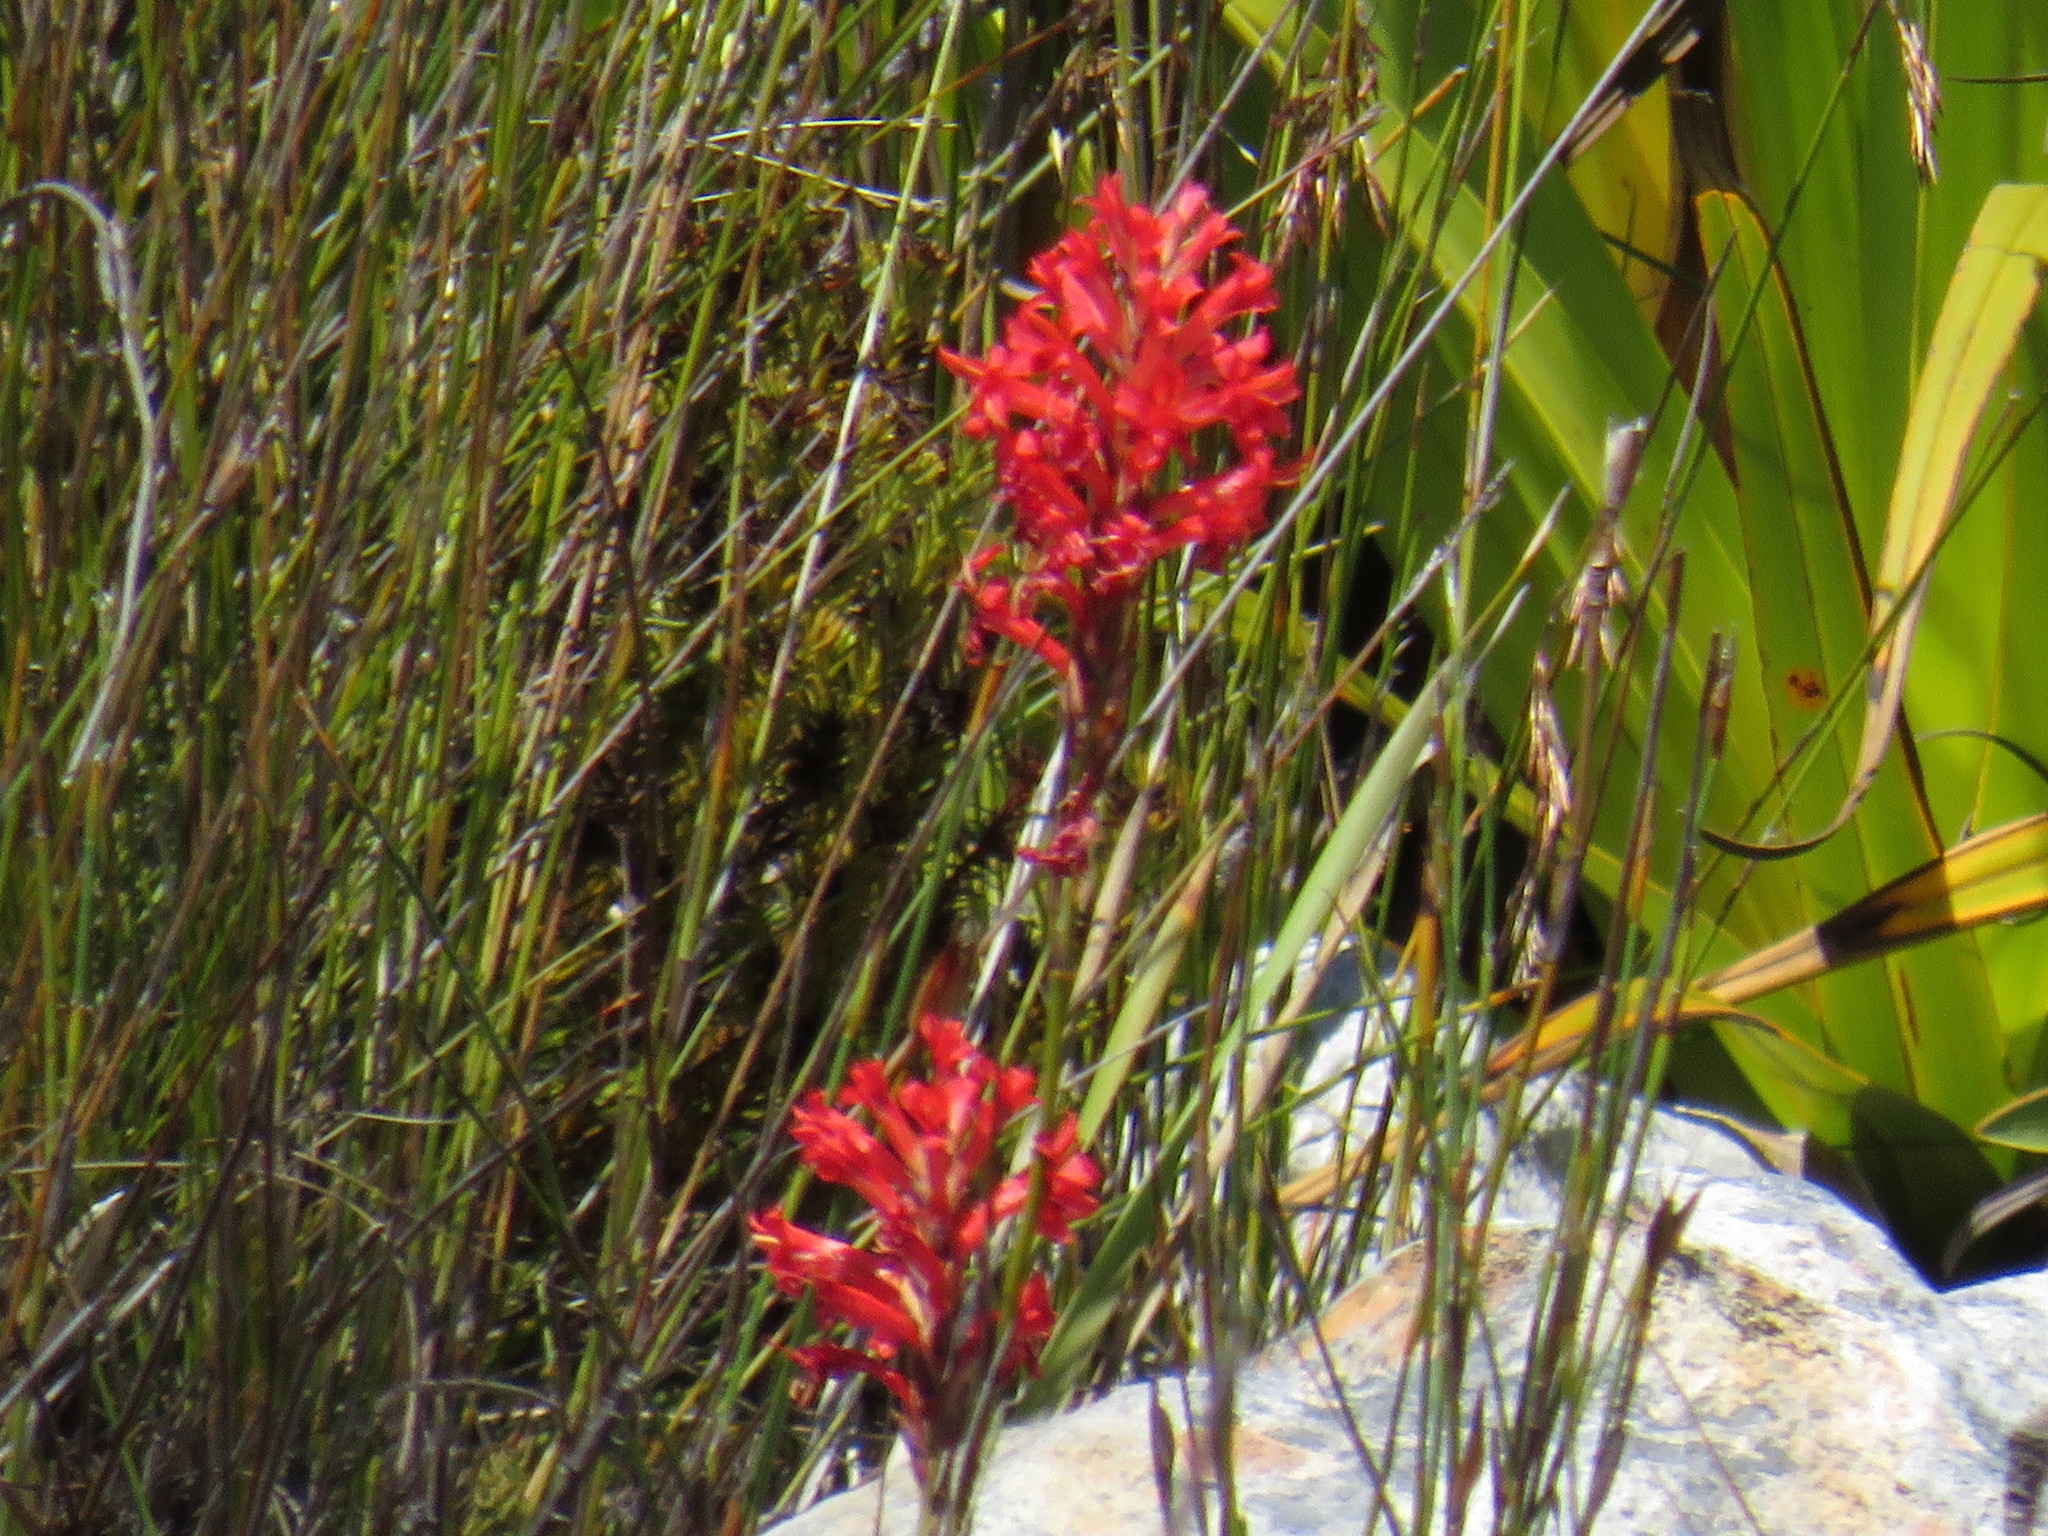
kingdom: Plantae
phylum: Tracheophyta
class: Liliopsida
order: Asparagales
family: Iridaceae
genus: Tritoniopsis
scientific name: Tritoniopsis triticea
